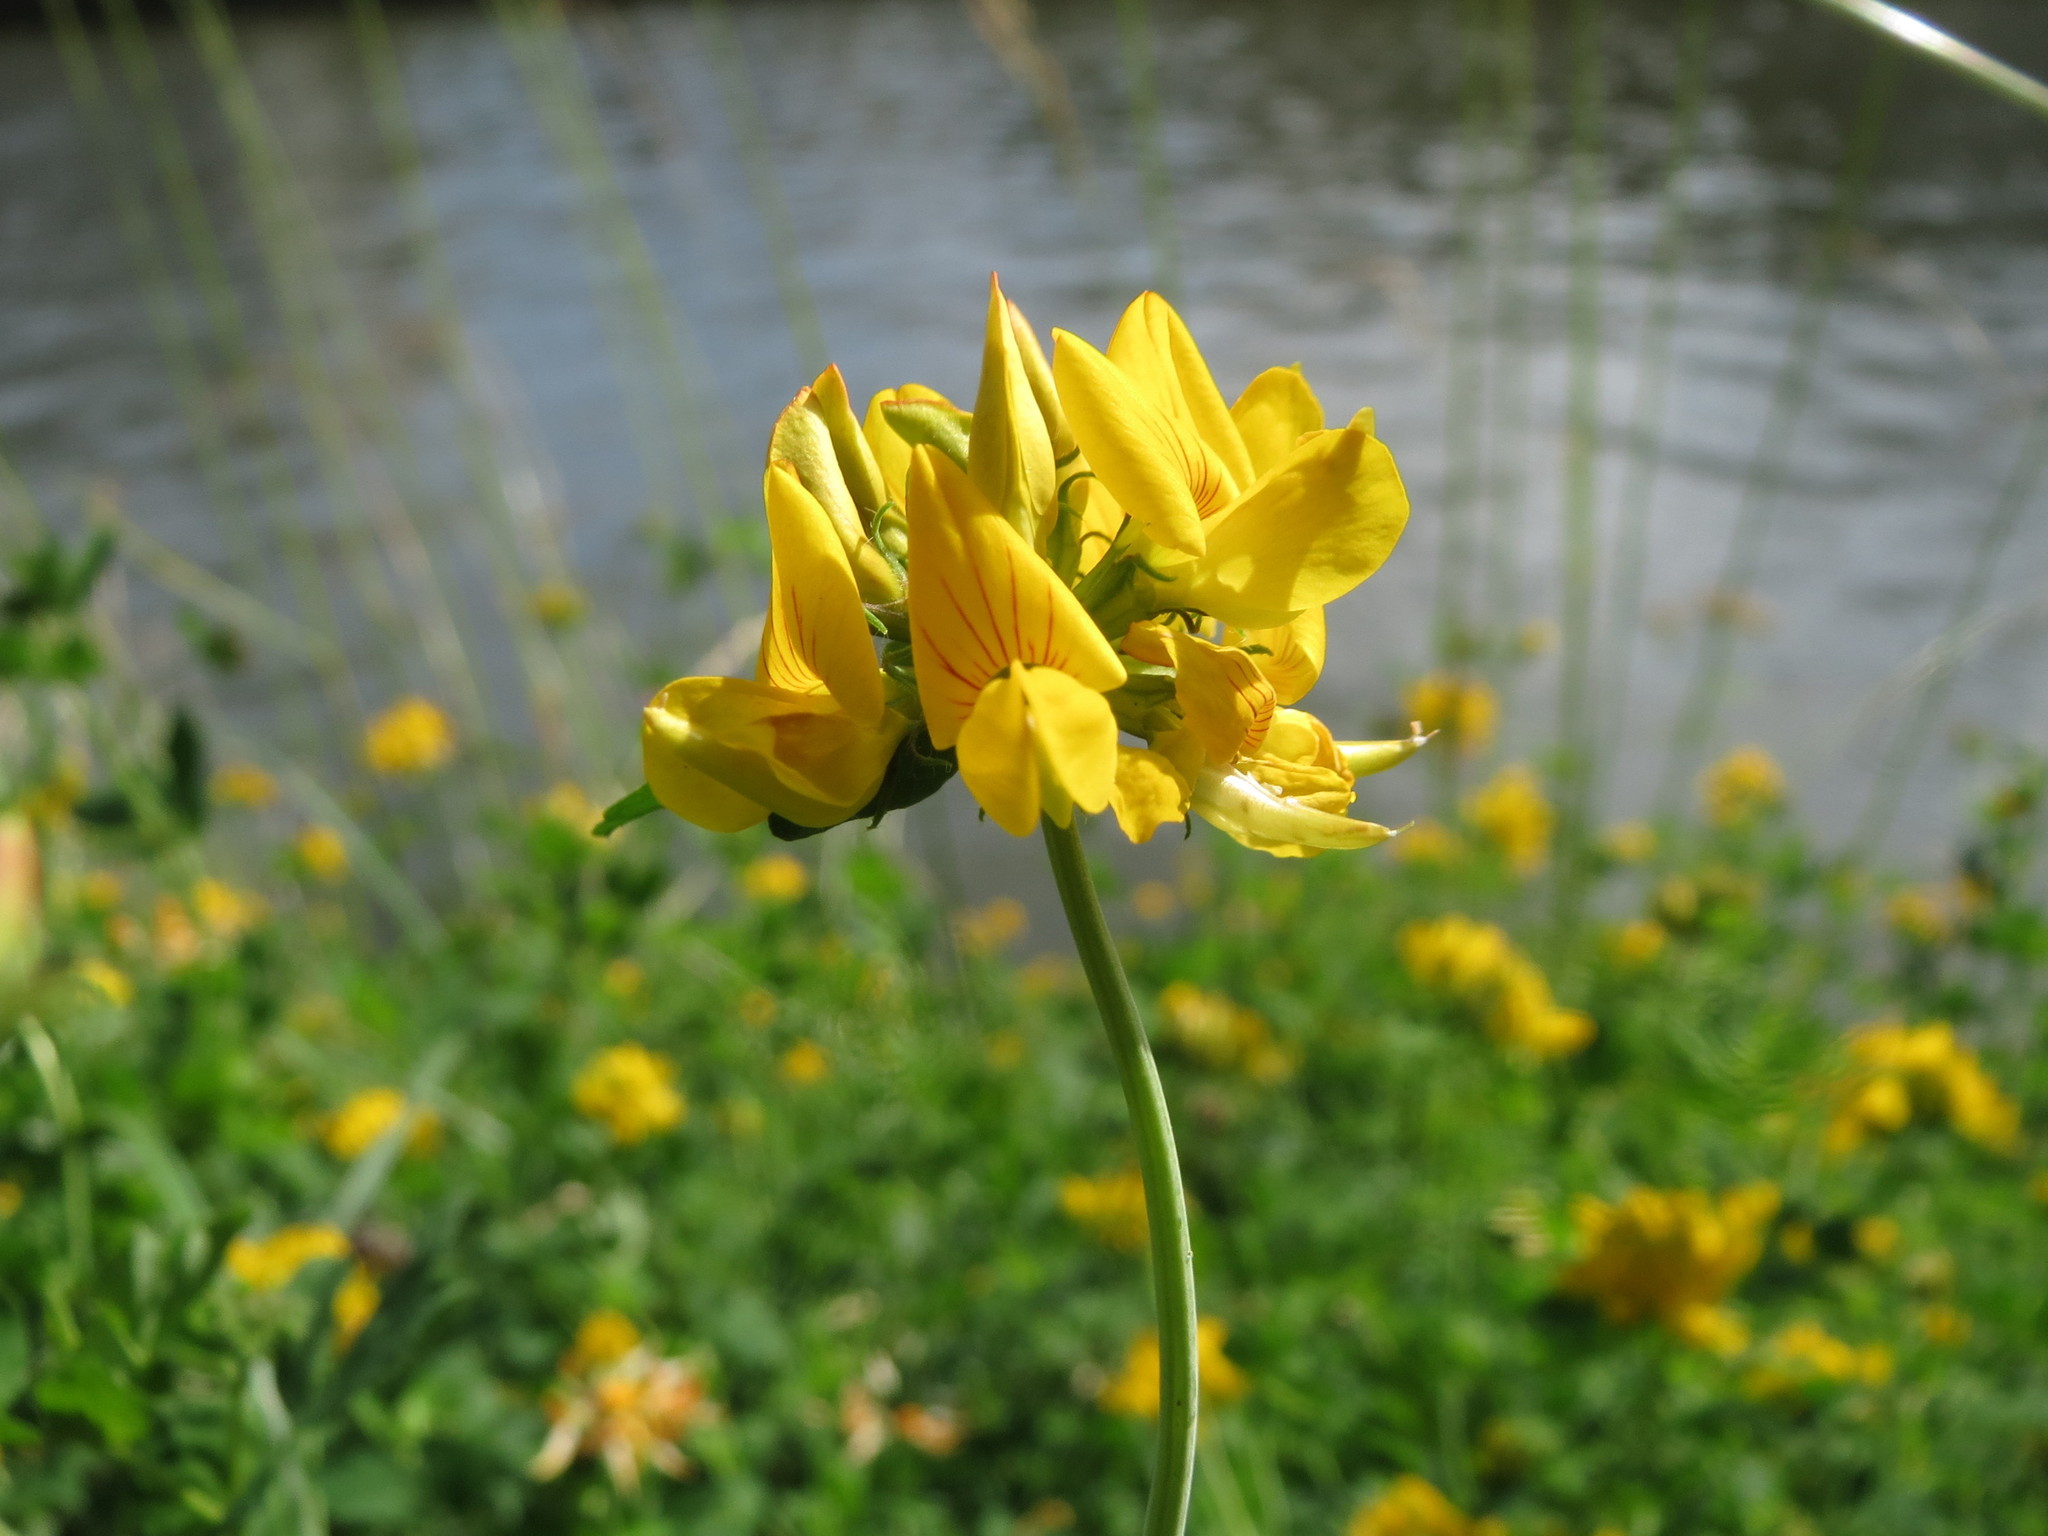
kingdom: Plantae
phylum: Tracheophyta
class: Magnoliopsida
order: Fabales
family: Fabaceae
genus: Lotus
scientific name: Lotus pedunculatus
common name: Greater birdsfoot-trefoil
